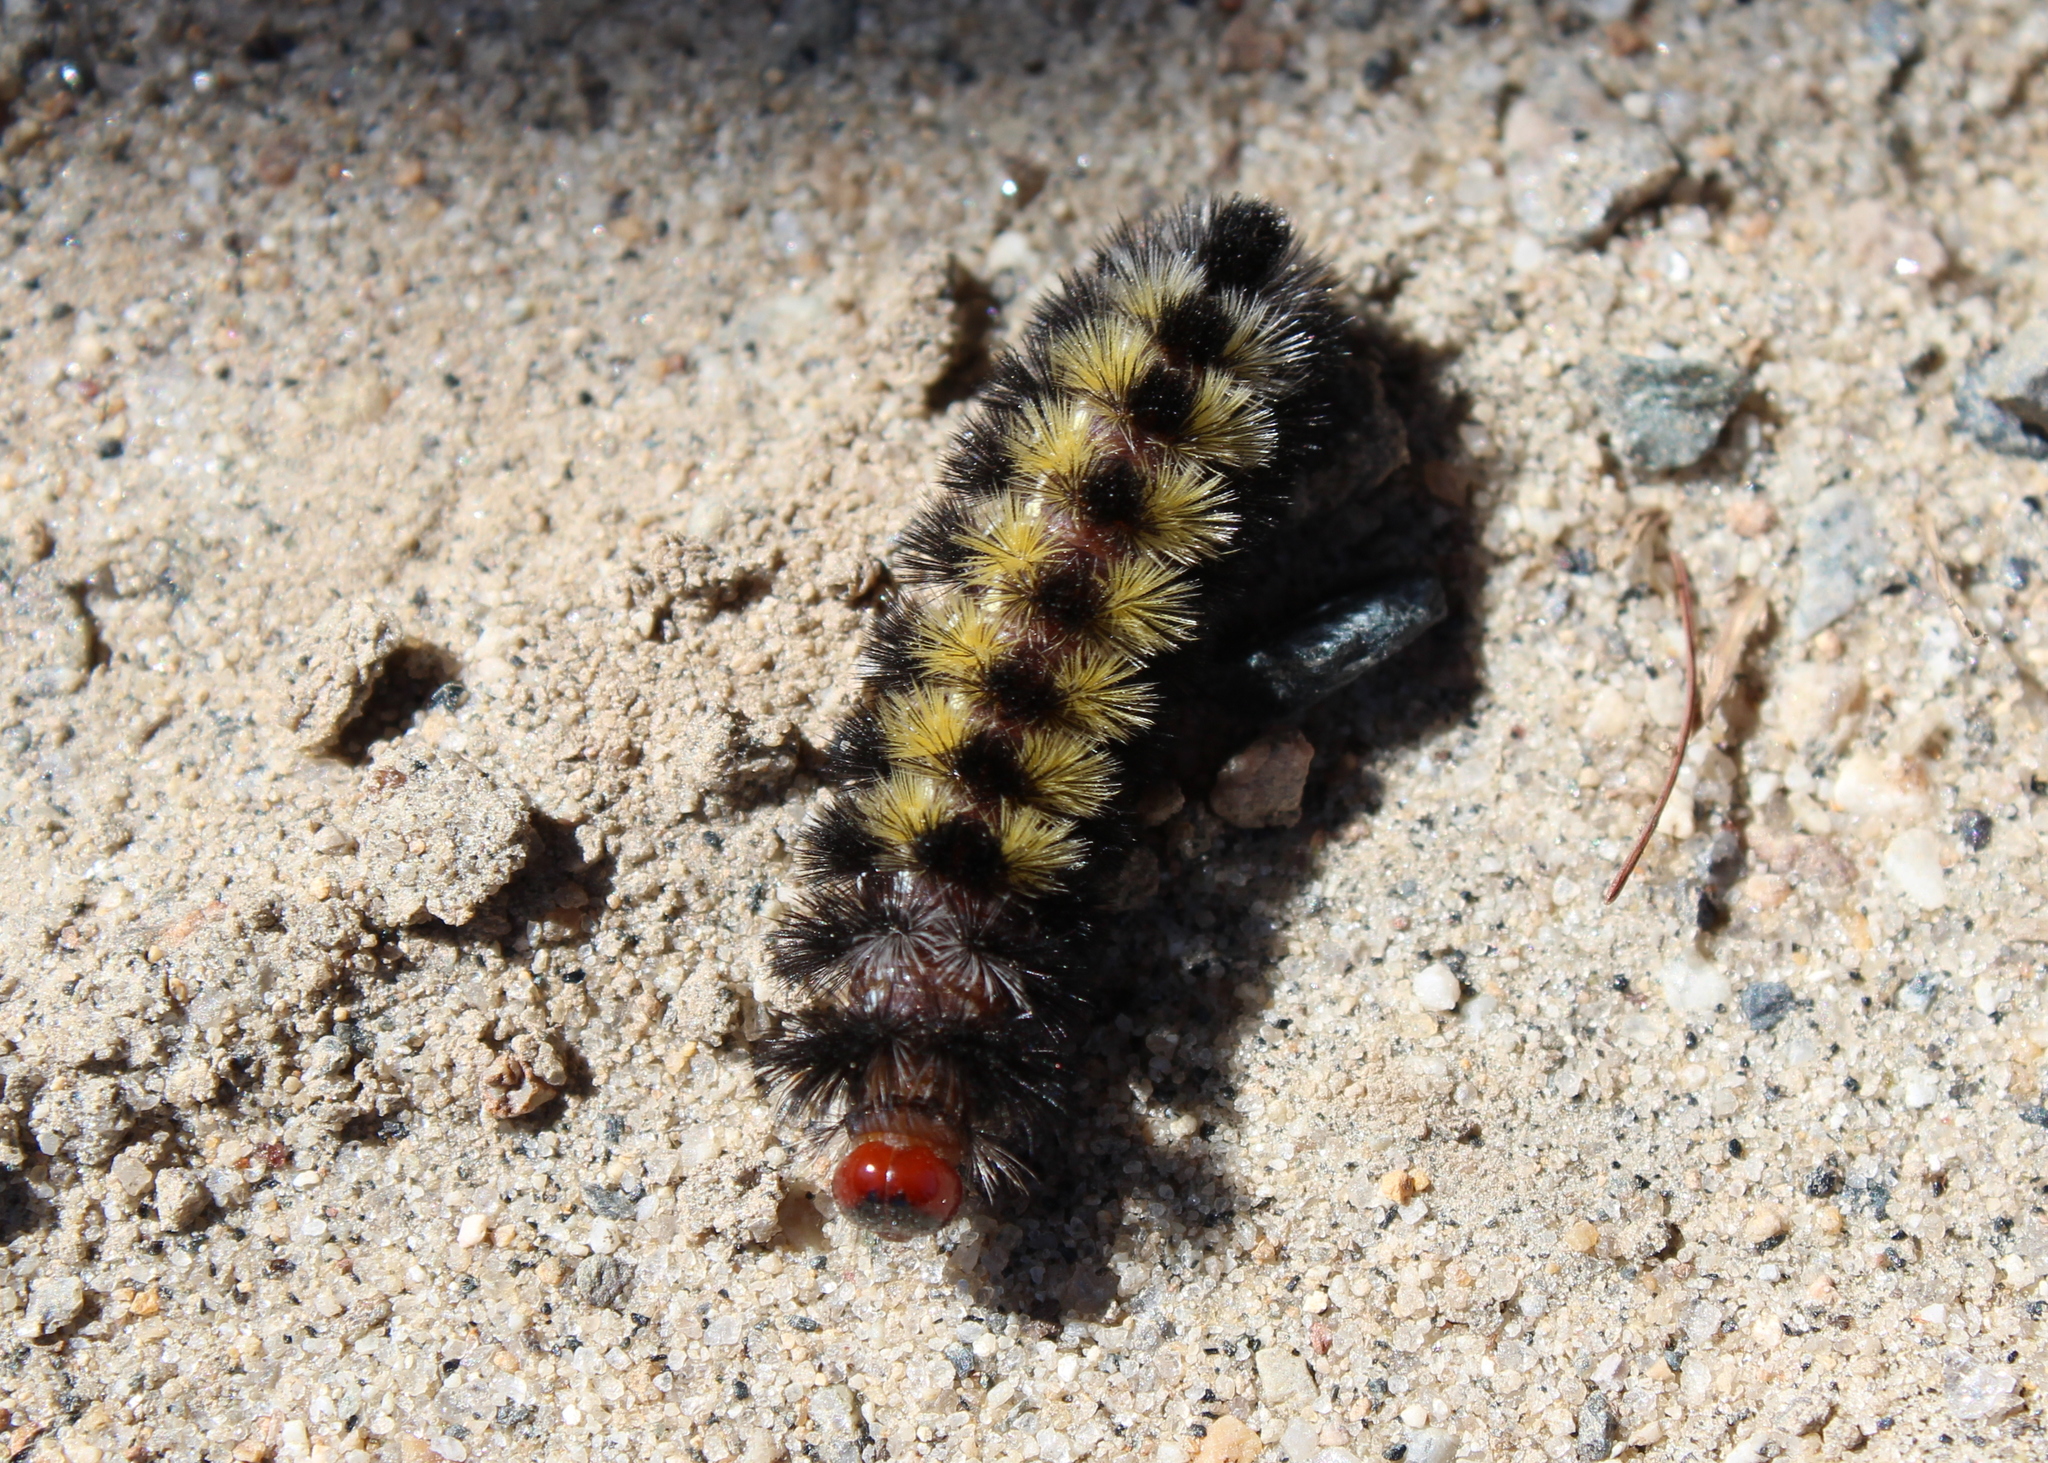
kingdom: Animalia
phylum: Arthropoda
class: Insecta
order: Lepidoptera
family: Erebidae
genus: Ctenucha
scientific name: Ctenucha virginica
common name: Virginia ctenucha moth
